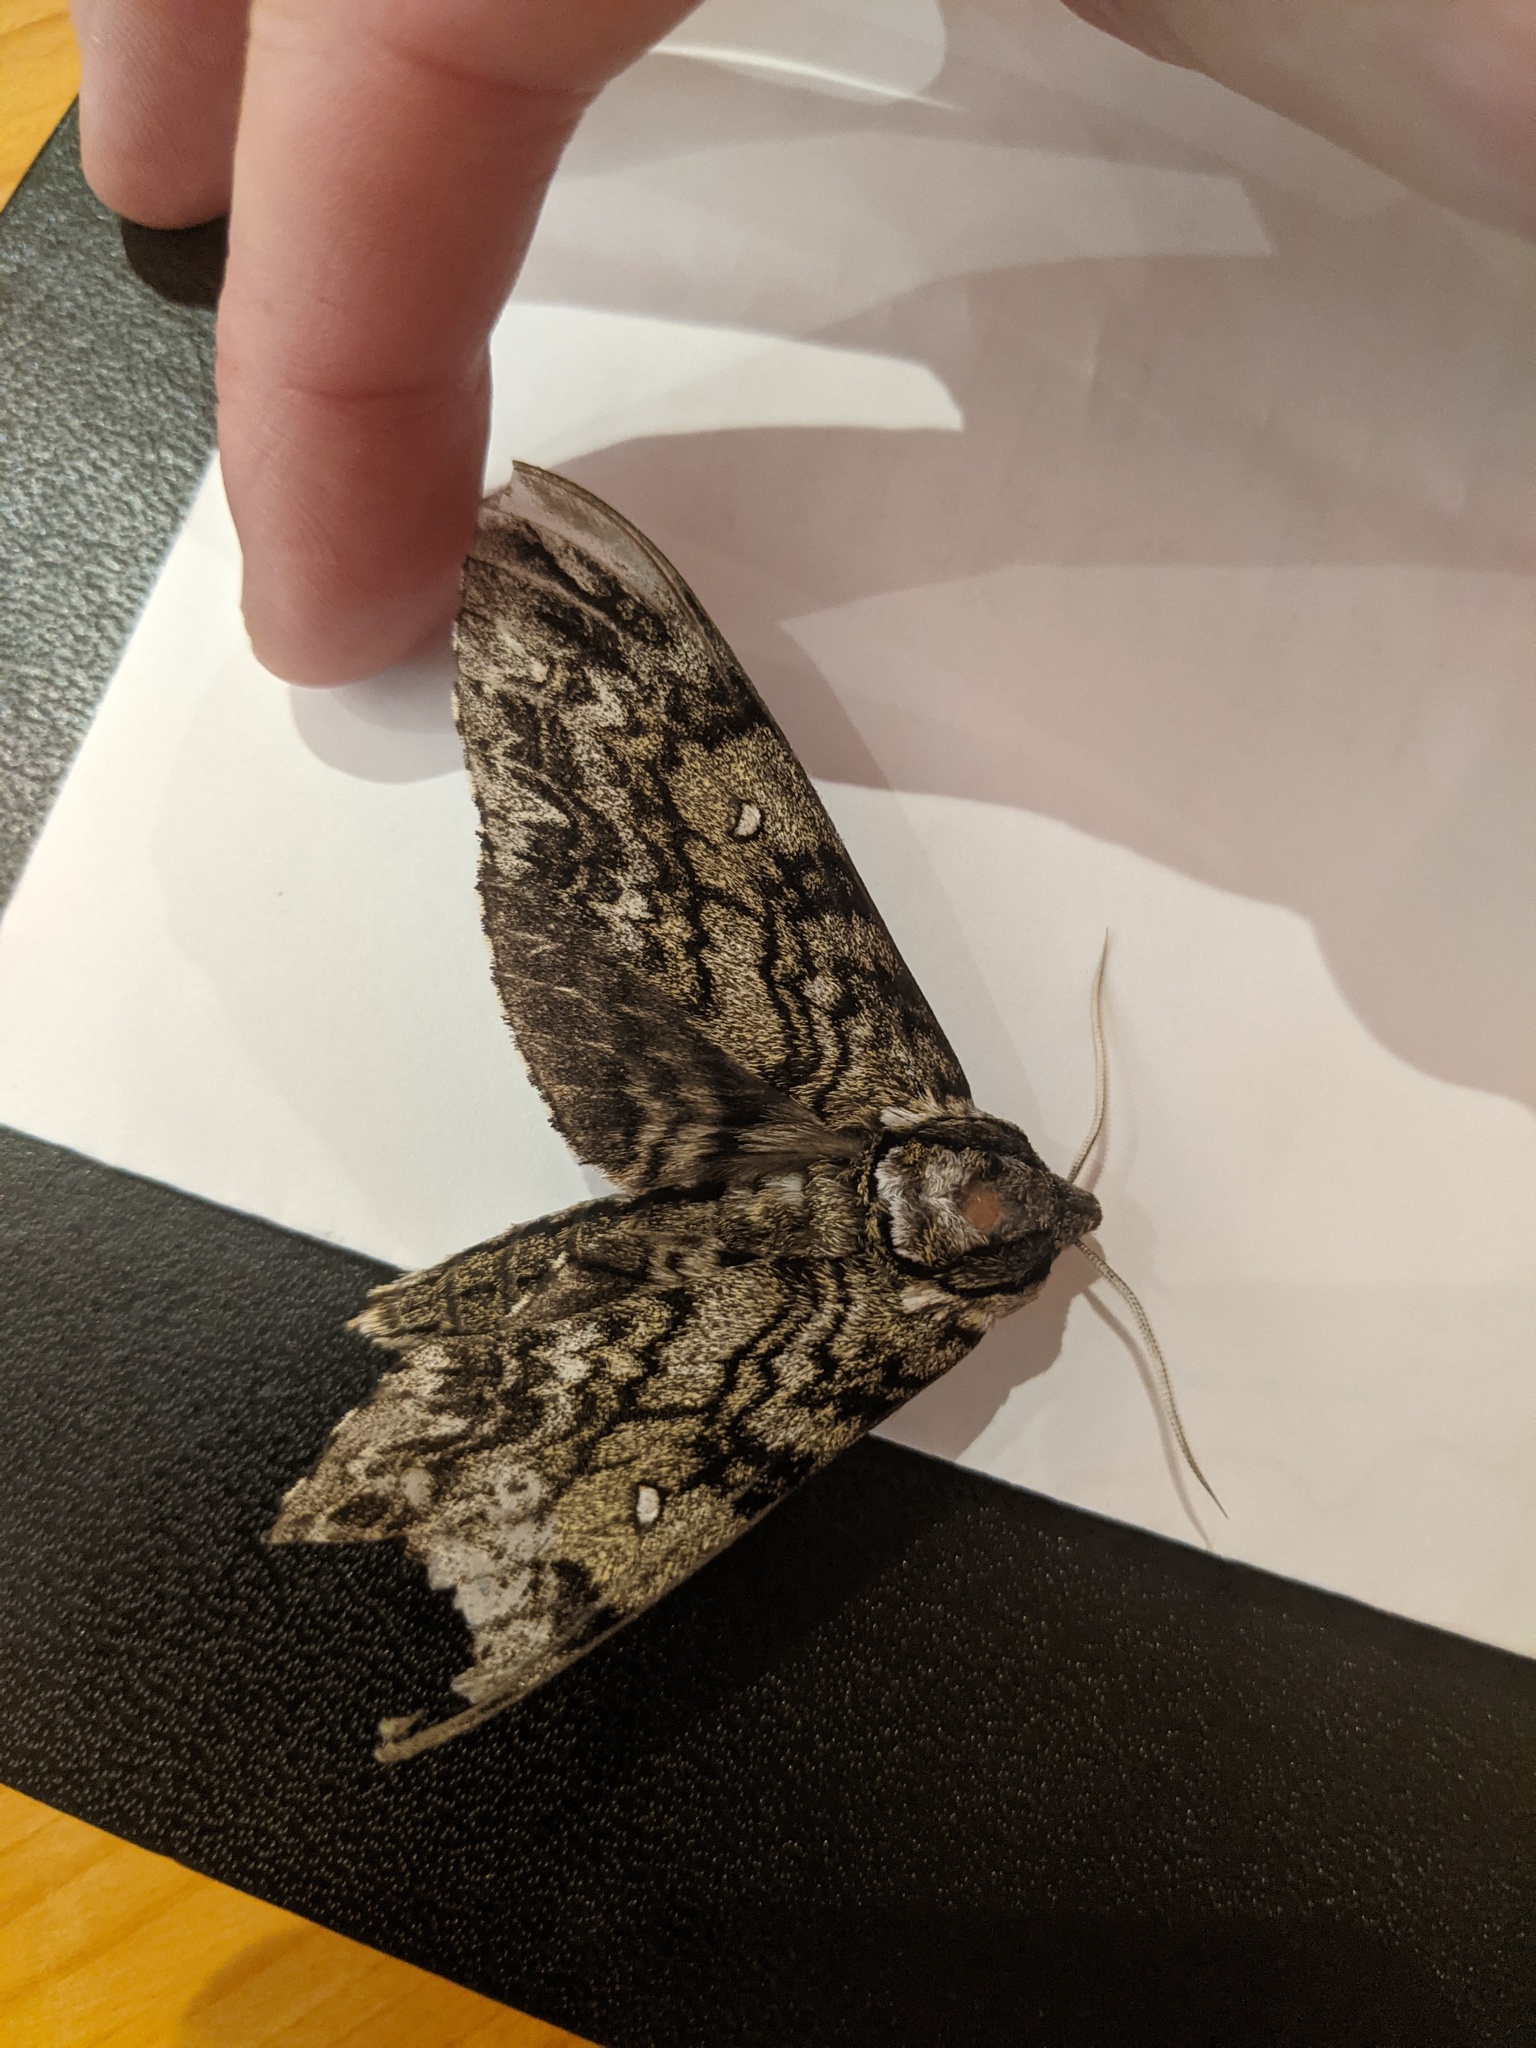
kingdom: Animalia
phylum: Arthropoda
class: Insecta
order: Lepidoptera
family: Sphingidae
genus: Ceratomia
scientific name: Ceratomia undulosa
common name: Waved sphinx
